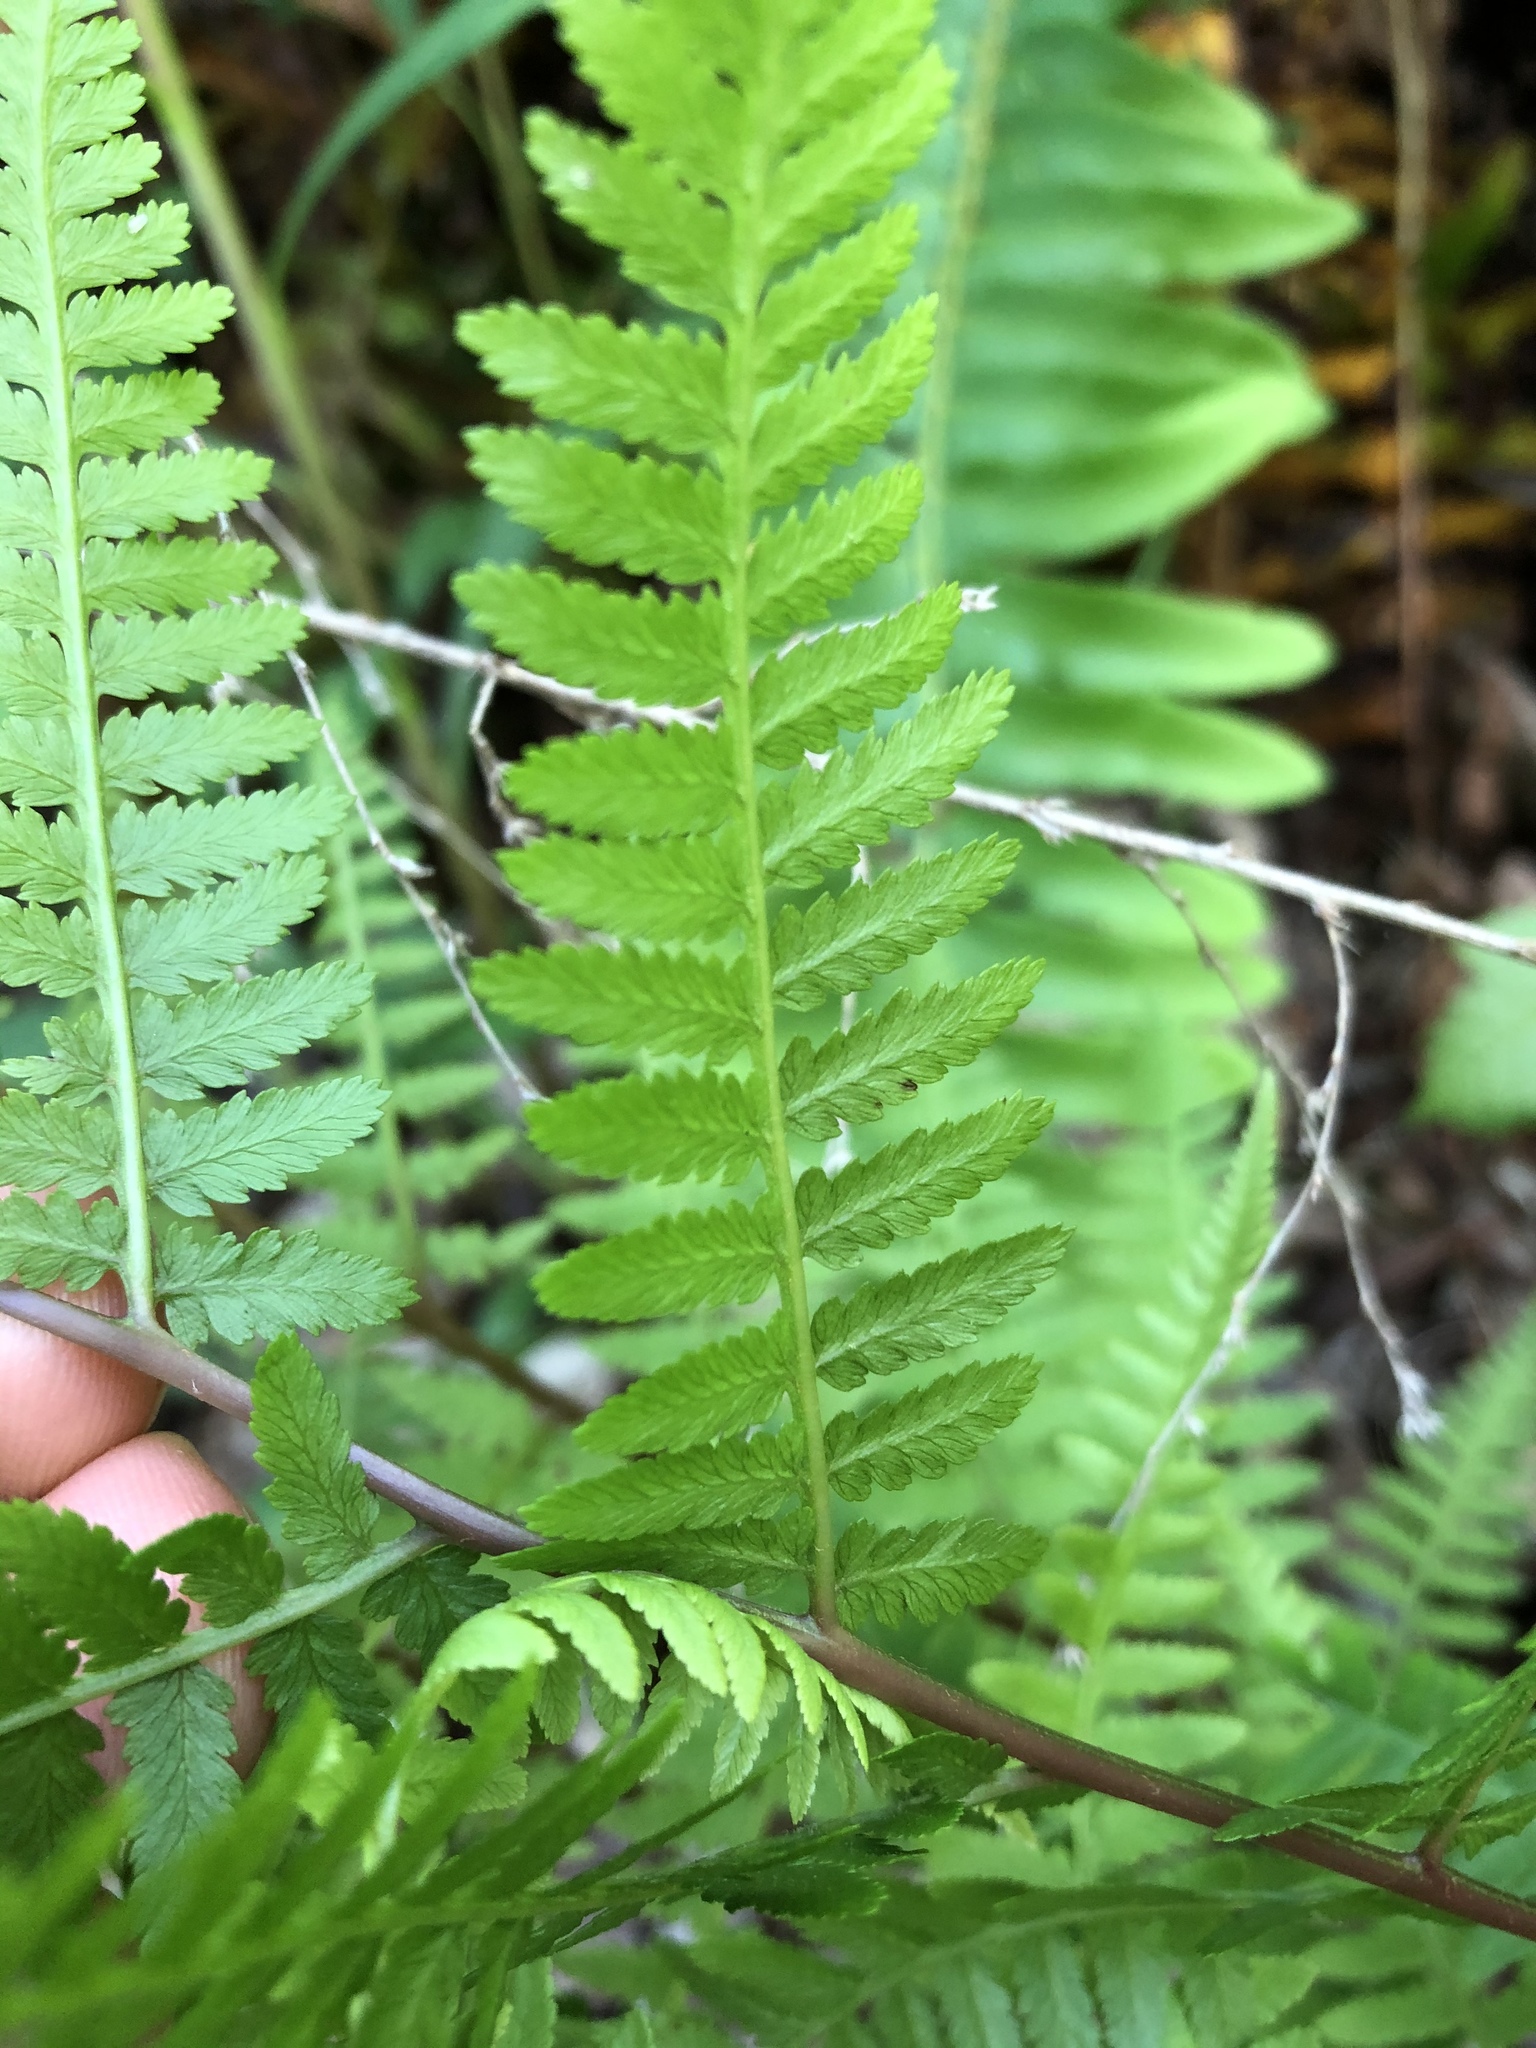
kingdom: Plantae
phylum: Tracheophyta
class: Polypodiopsida
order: Polypodiales
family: Athyriaceae
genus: Athyrium
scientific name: Athyrium asplenioides
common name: Southern lady fern
